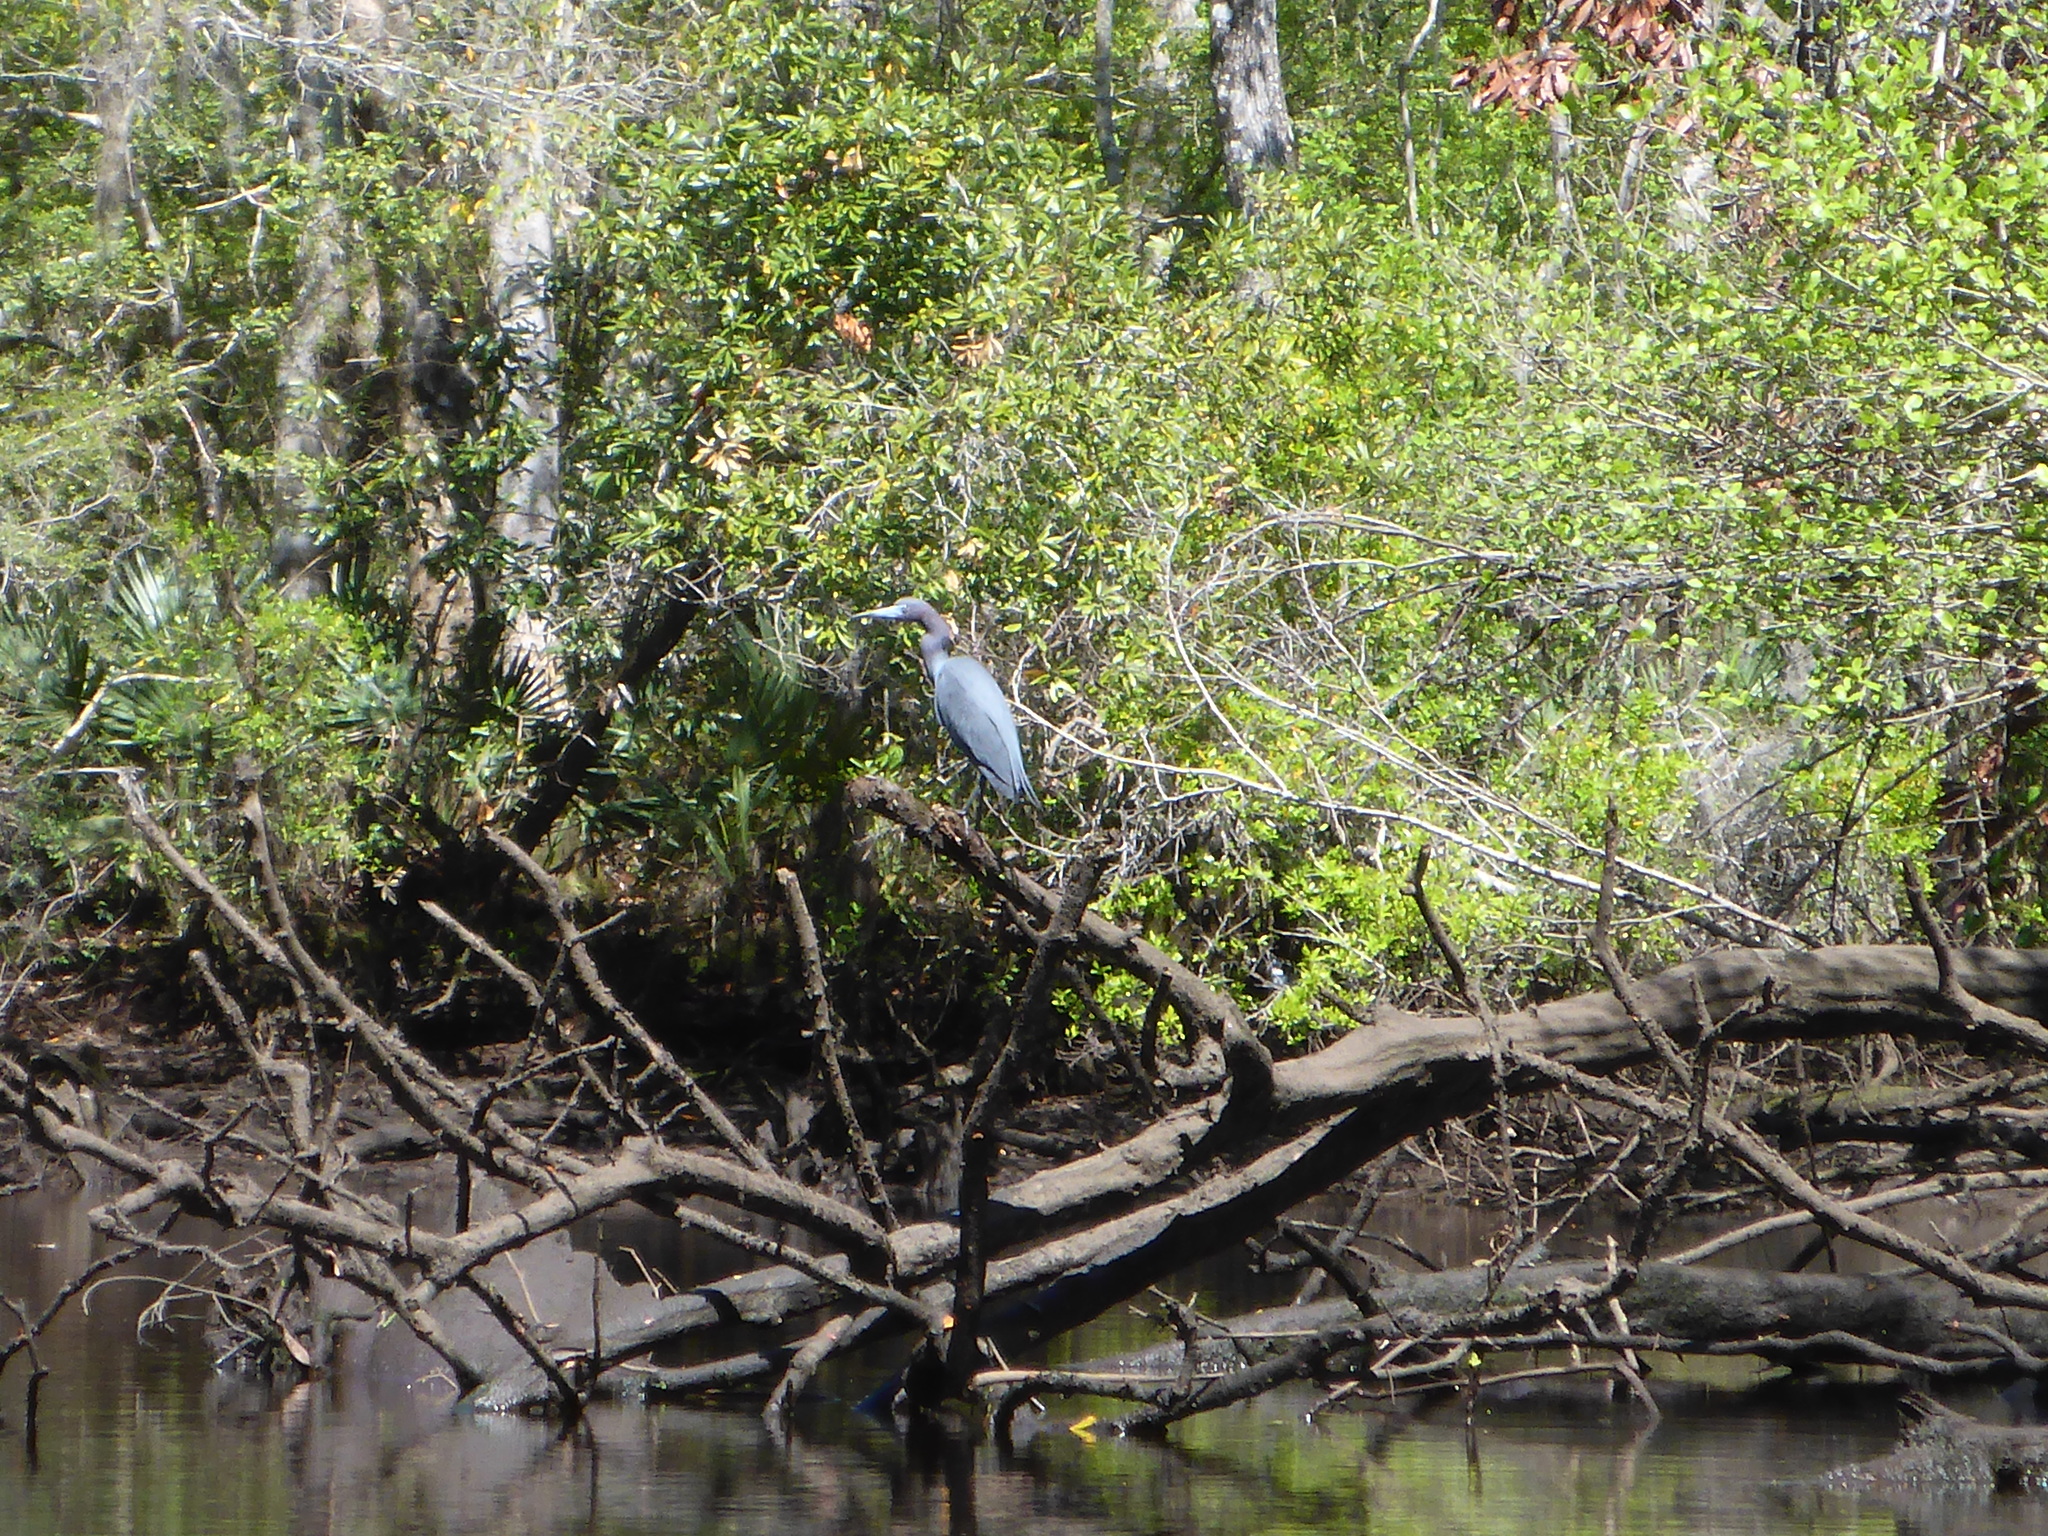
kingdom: Animalia
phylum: Chordata
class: Aves
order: Pelecaniformes
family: Ardeidae
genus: Egretta
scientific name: Egretta caerulea
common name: Little blue heron
